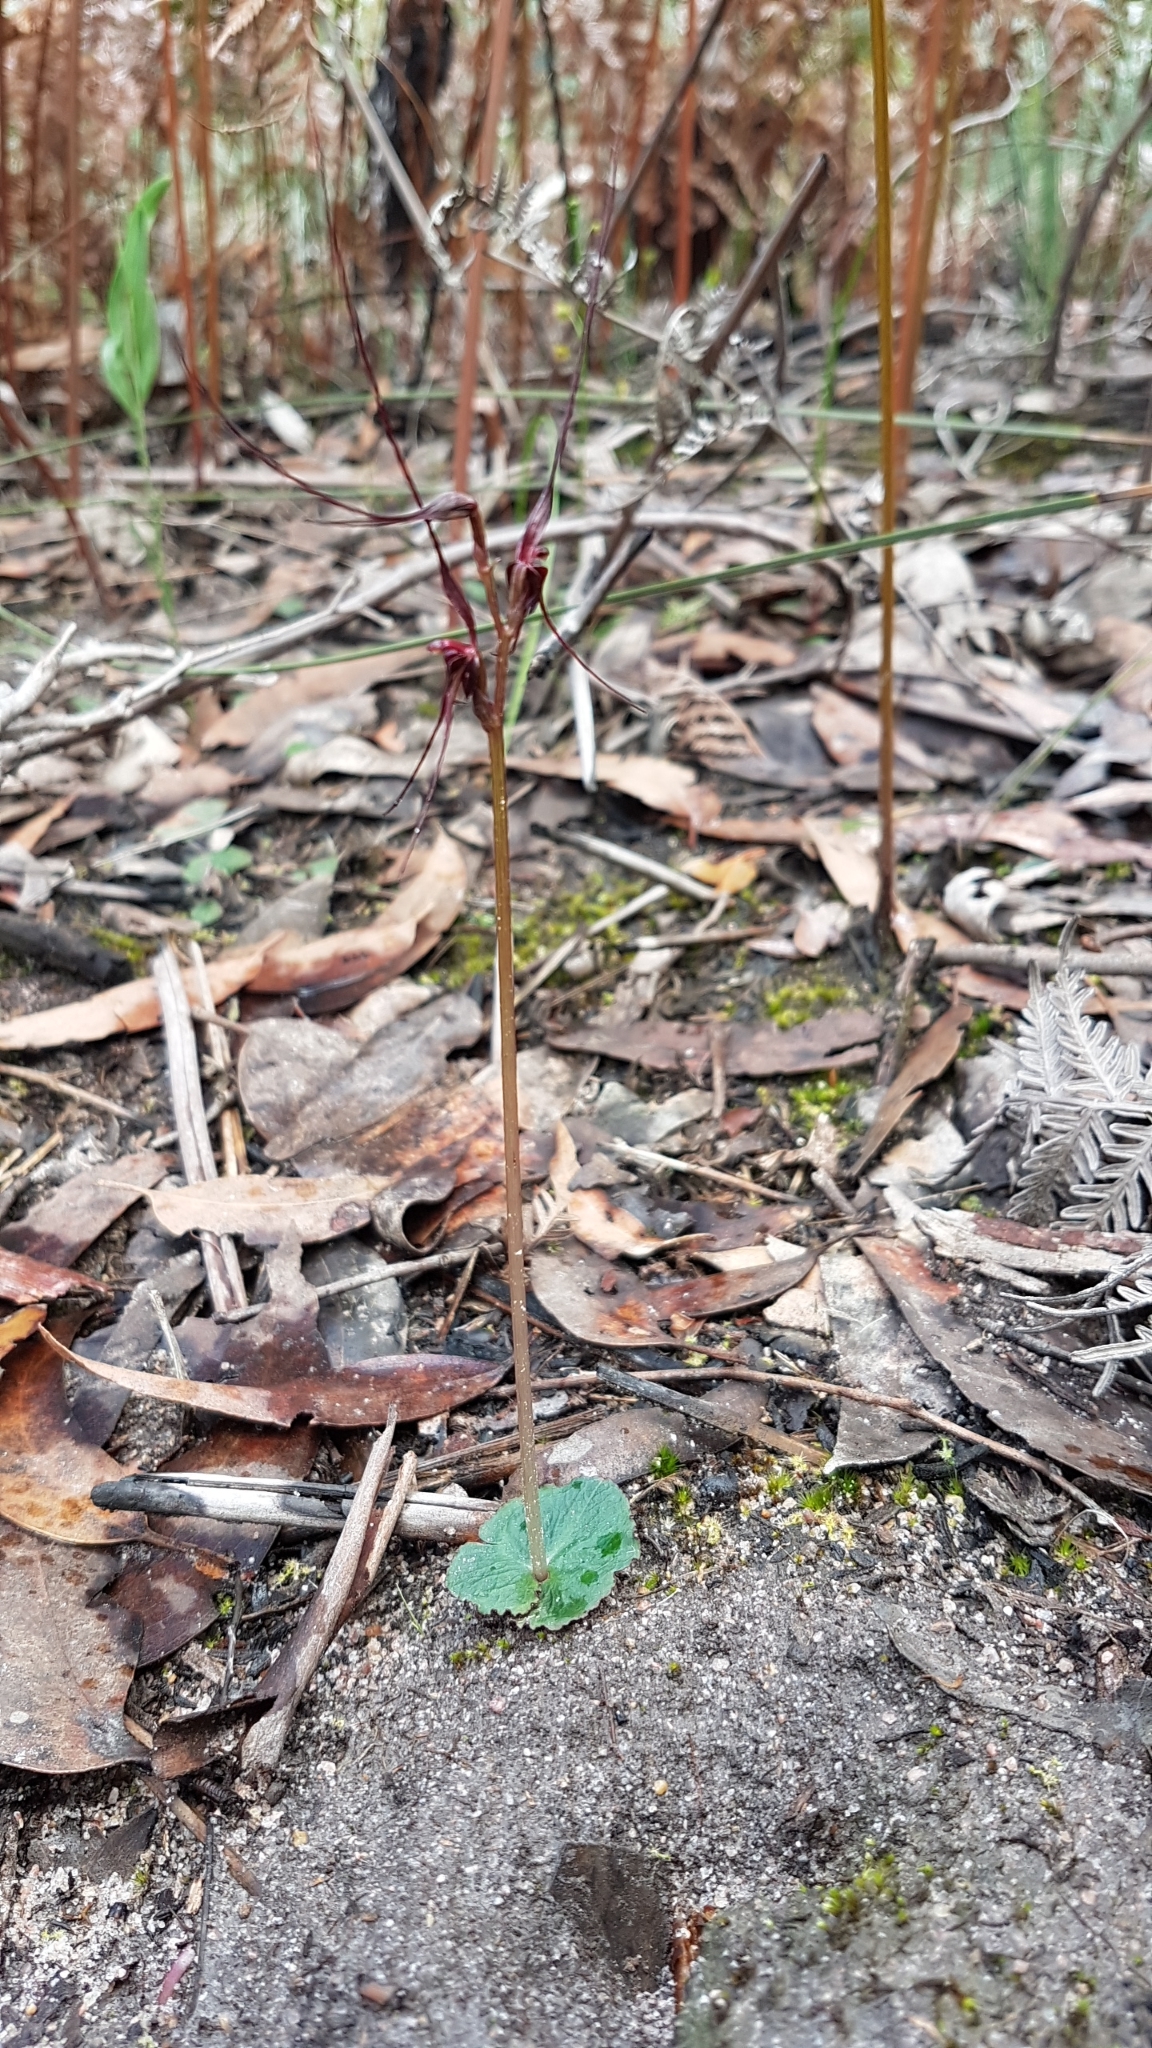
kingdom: Plantae
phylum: Tracheophyta
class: Liliopsida
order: Asparagales
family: Orchidaceae
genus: Acianthus
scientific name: Acianthus caudatus
